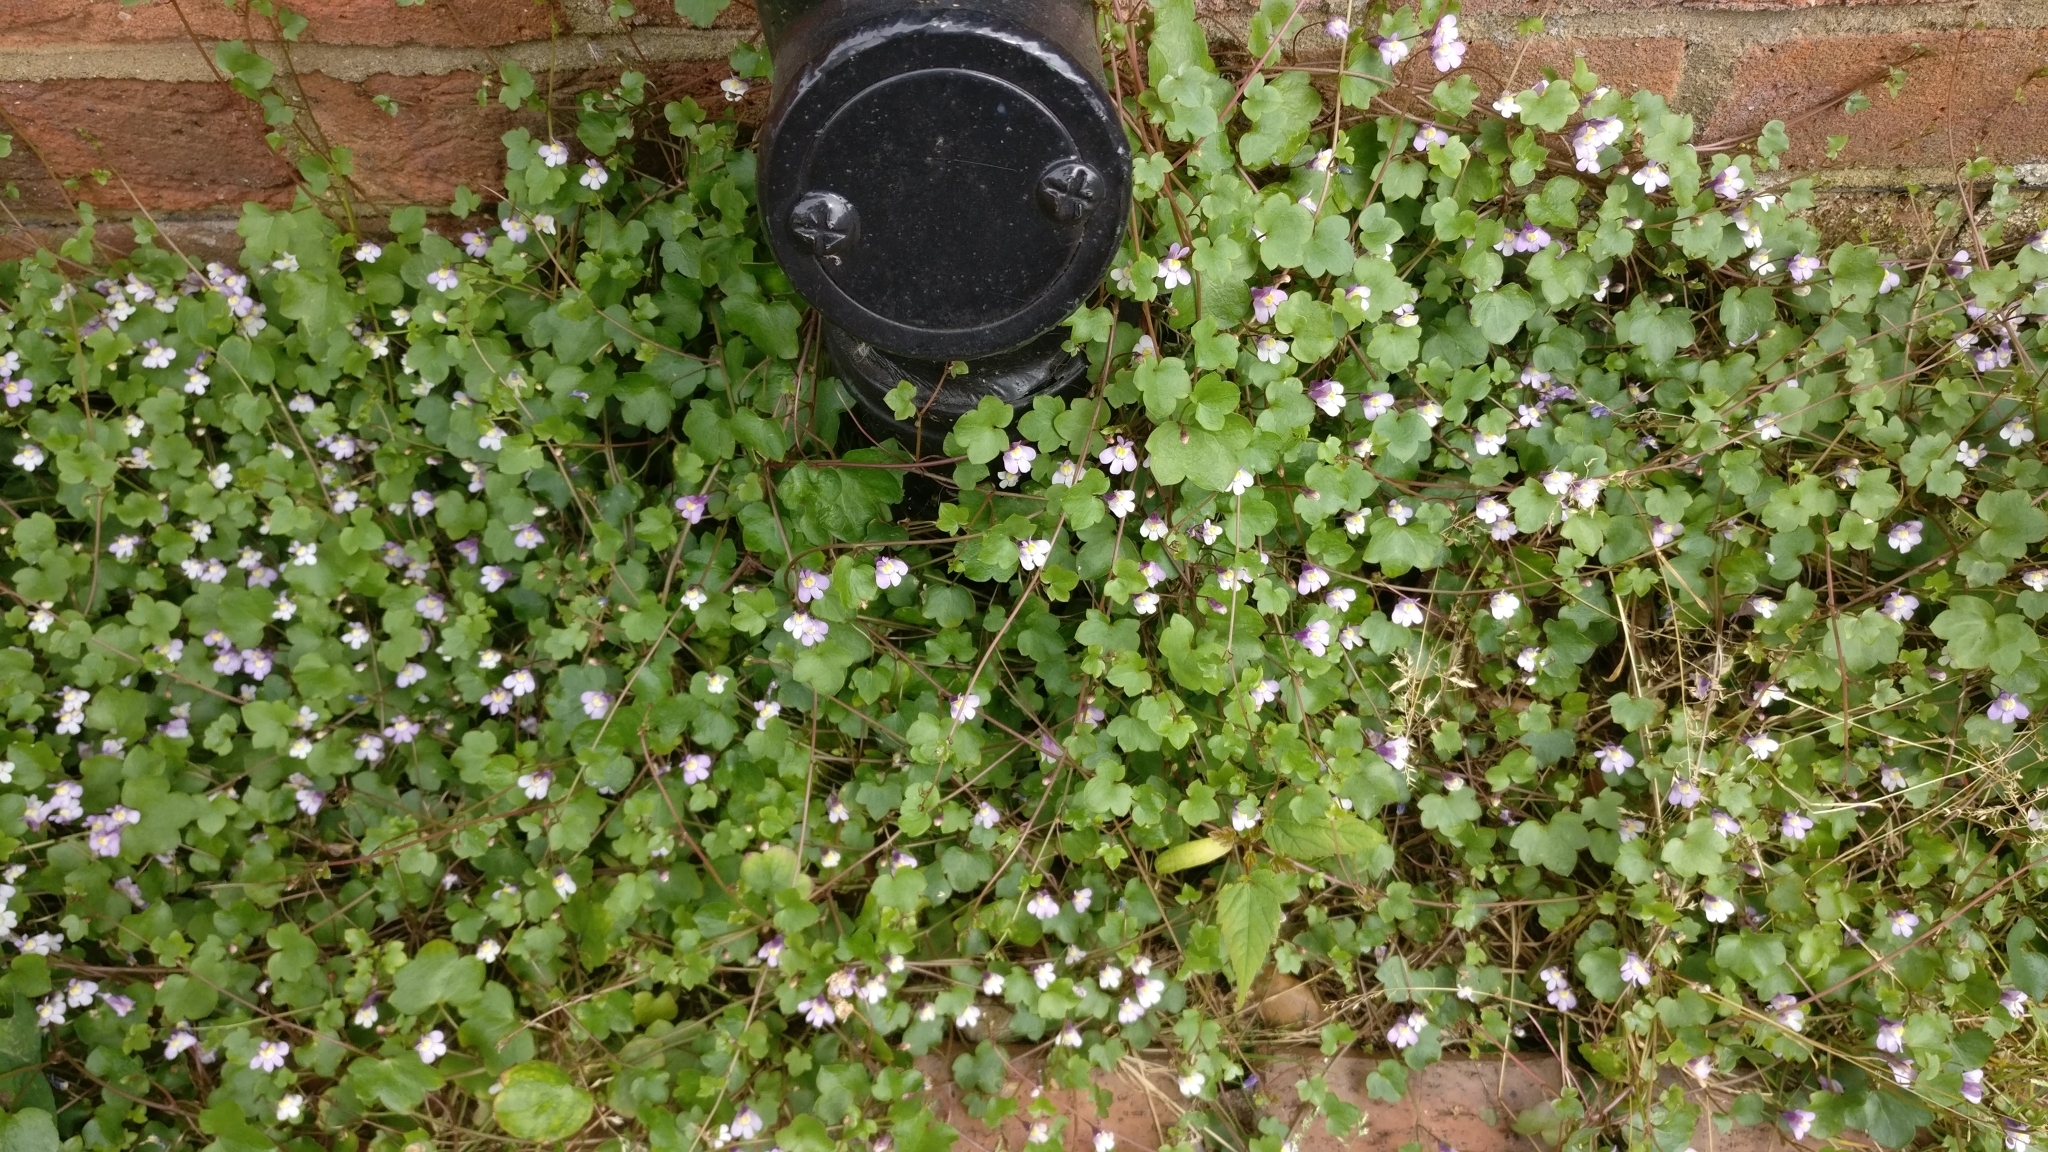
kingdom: Plantae
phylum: Tracheophyta
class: Magnoliopsida
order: Lamiales
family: Plantaginaceae
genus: Cymbalaria
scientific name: Cymbalaria muralis
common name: Ivy-leaved toadflax
